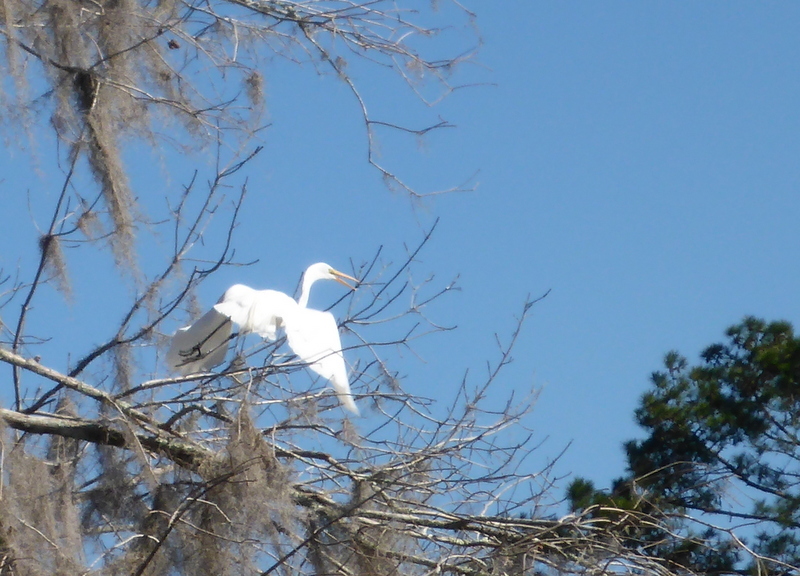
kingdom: Animalia
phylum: Chordata
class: Aves
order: Pelecaniformes
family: Ardeidae
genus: Ardea
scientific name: Ardea alba
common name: Great egret
